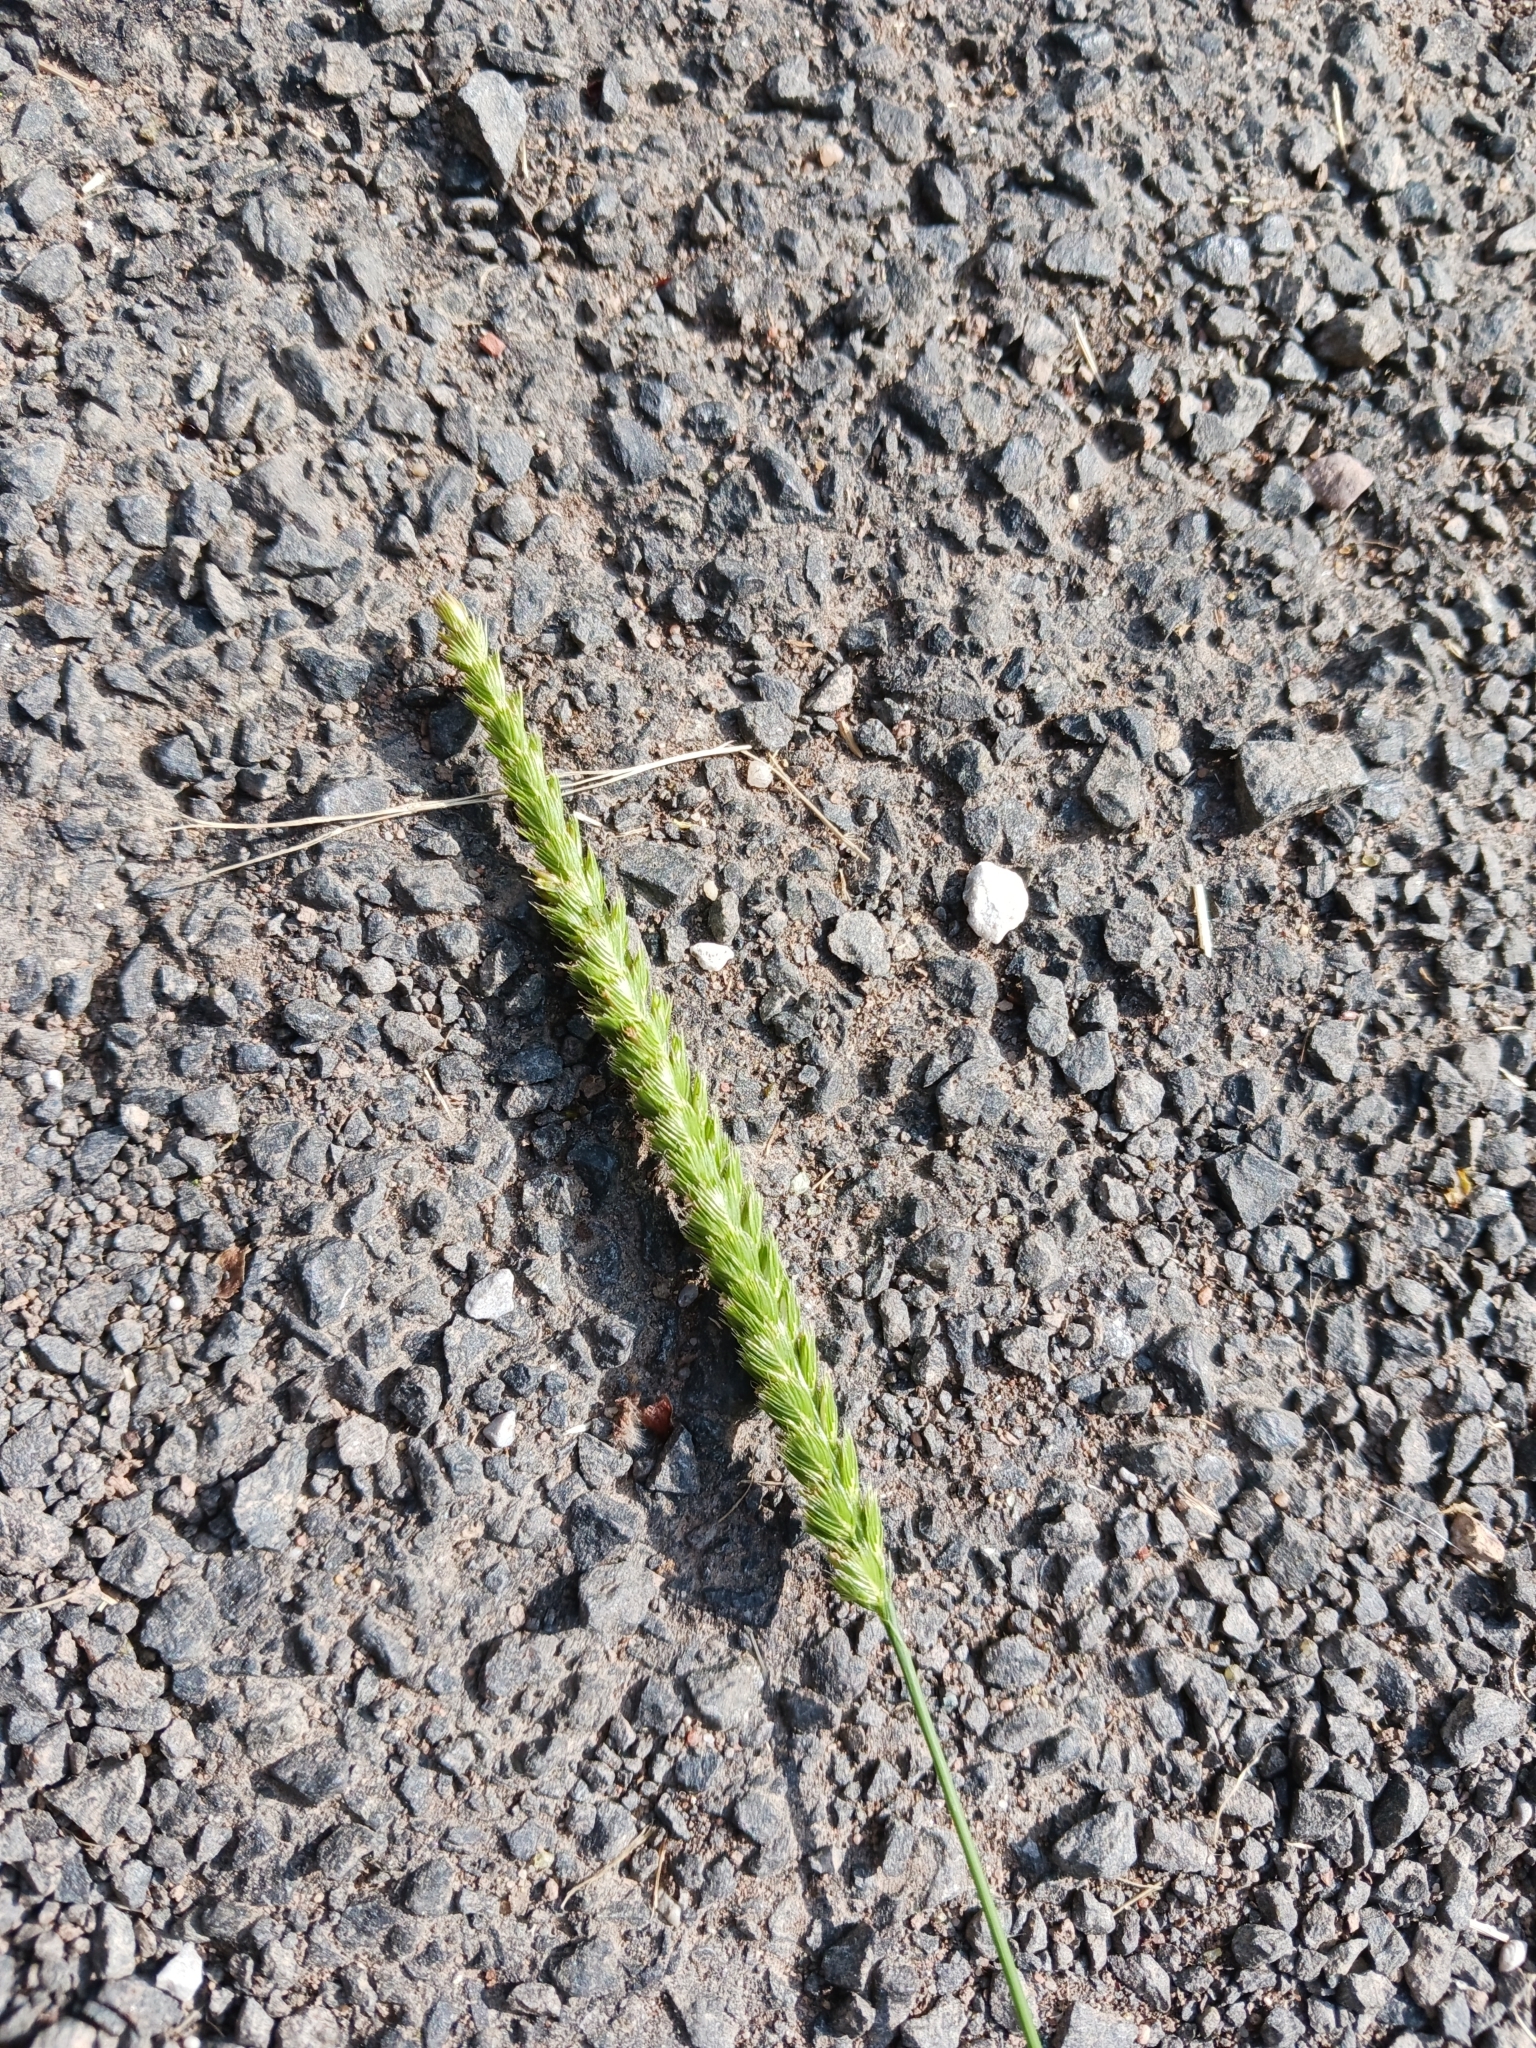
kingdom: Plantae
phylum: Tracheophyta
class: Liliopsida
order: Poales
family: Poaceae
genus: Cynosurus
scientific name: Cynosurus cristatus
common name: Crested dog's-tail
